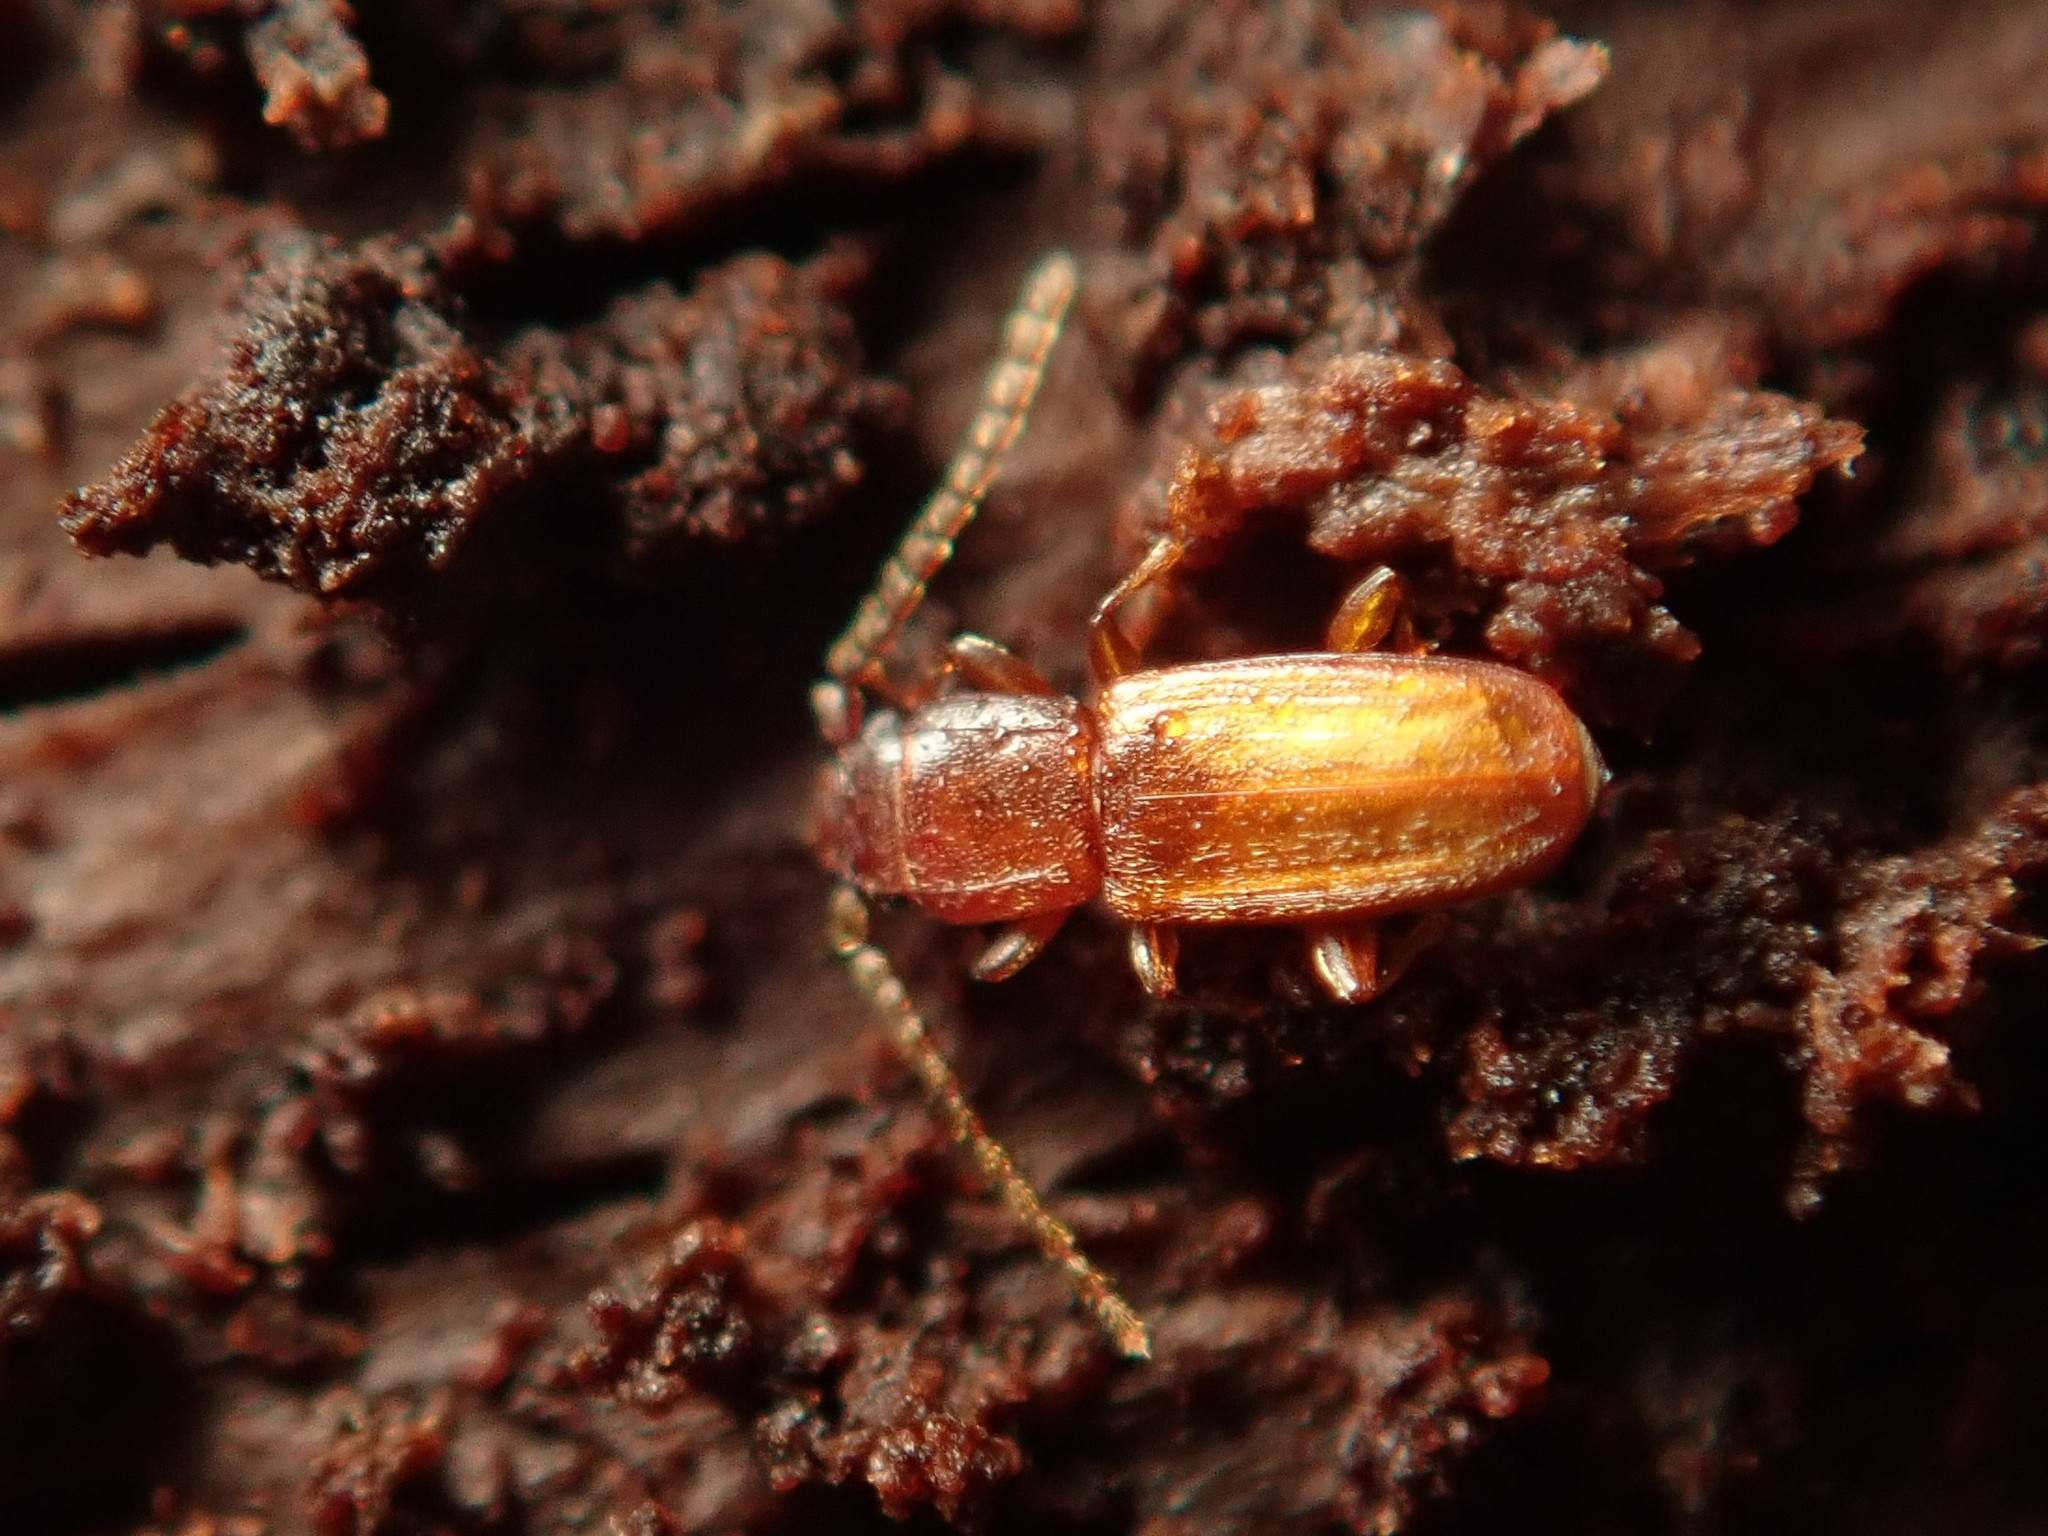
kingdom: Animalia
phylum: Arthropoda
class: Insecta
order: Coleoptera
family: Laemophloeidae
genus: Placonotus
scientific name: Placonotus testaceus
